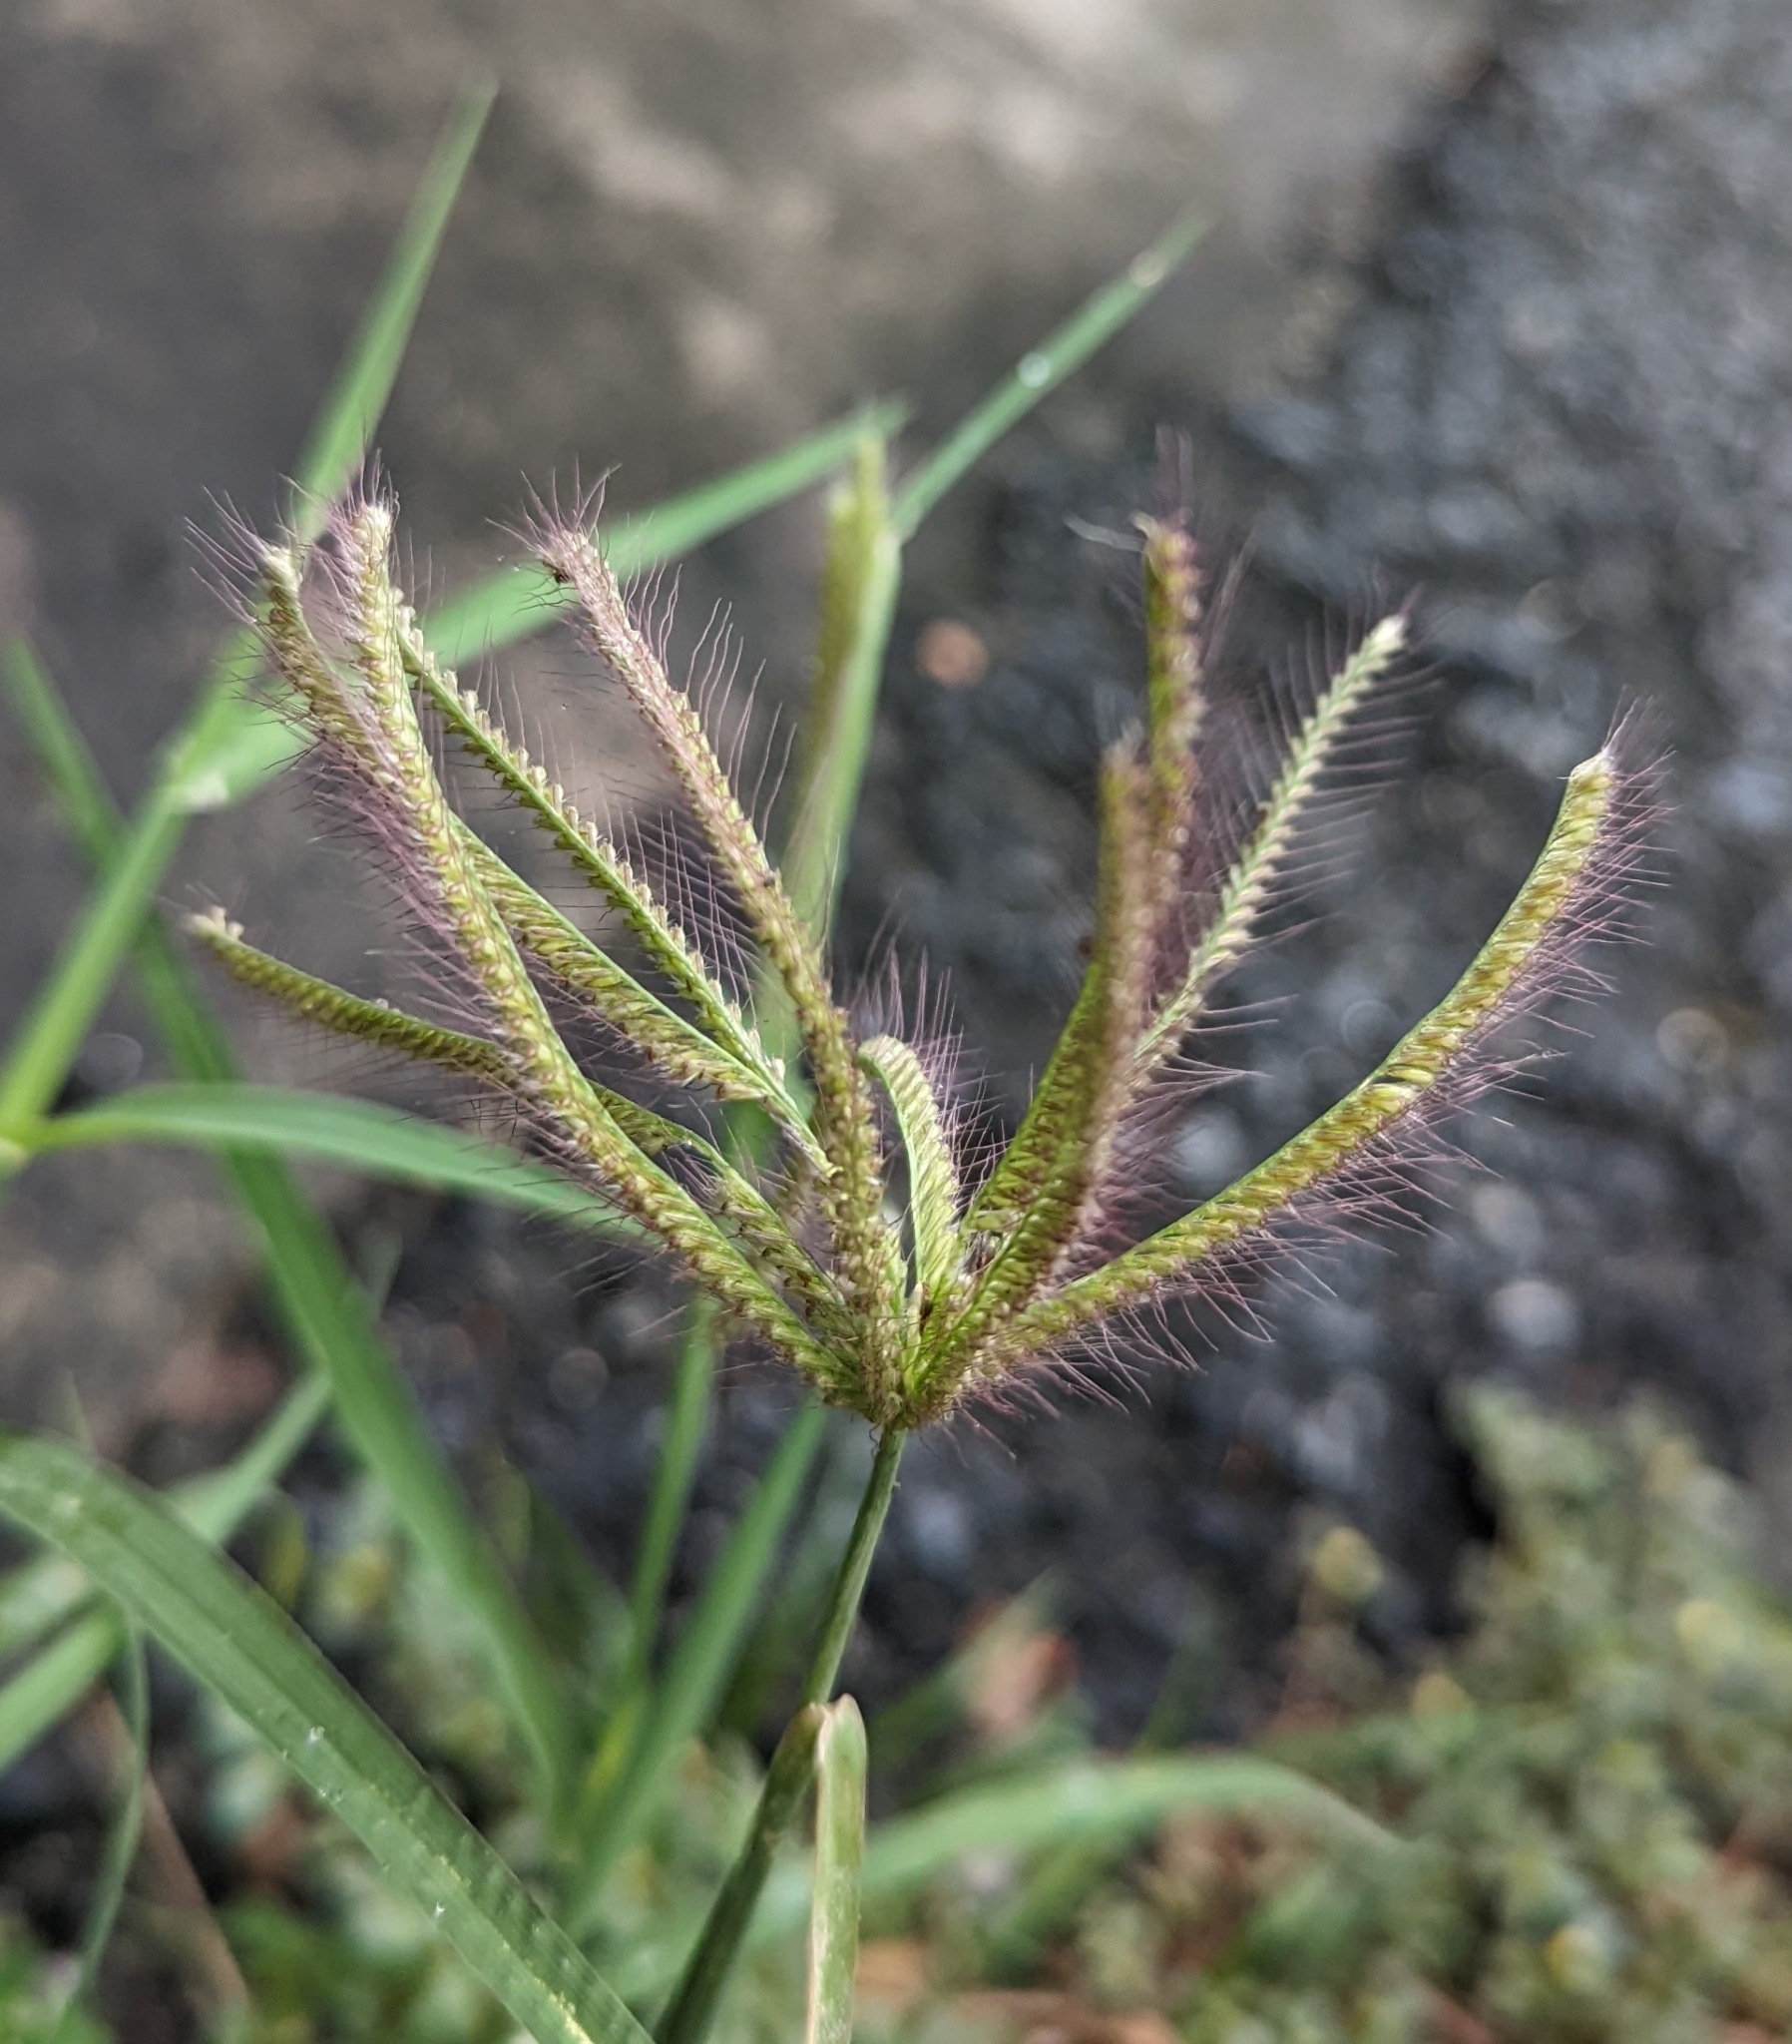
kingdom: Plantae
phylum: Tracheophyta
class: Liliopsida
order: Poales
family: Poaceae
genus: Chloris
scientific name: Chloris barbata
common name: Swollen fingergrass
